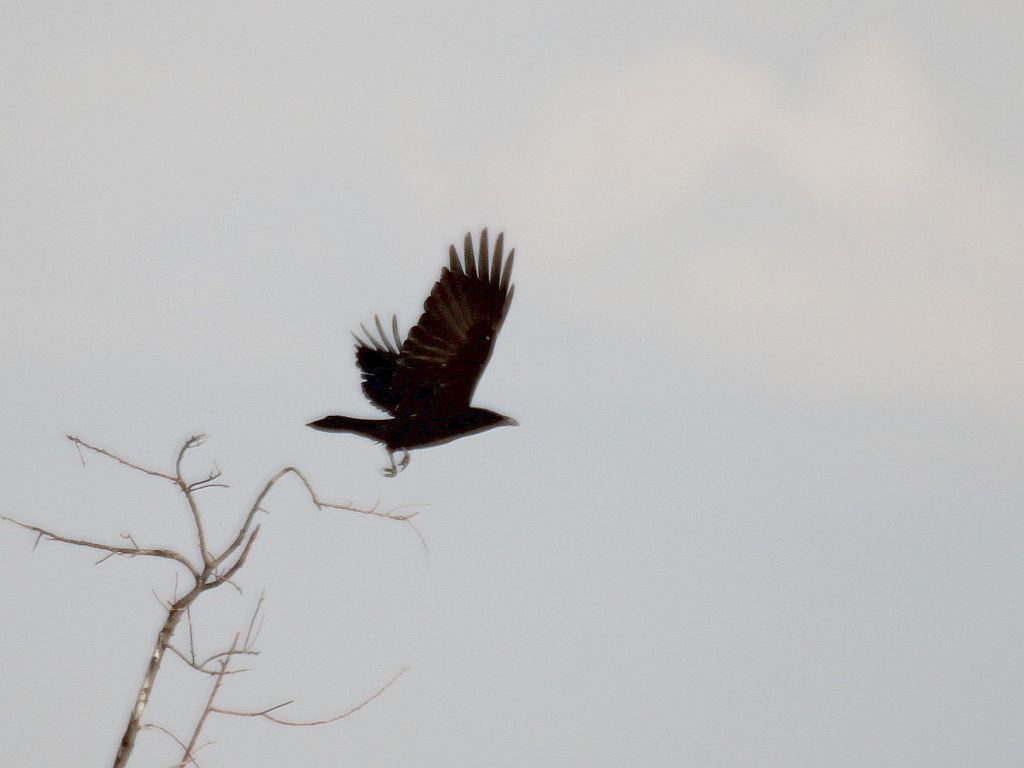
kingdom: Animalia
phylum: Chordata
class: Aves
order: Passeriformes
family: Corvidae
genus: Corvus
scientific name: Corvus corone
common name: Carrion crow
